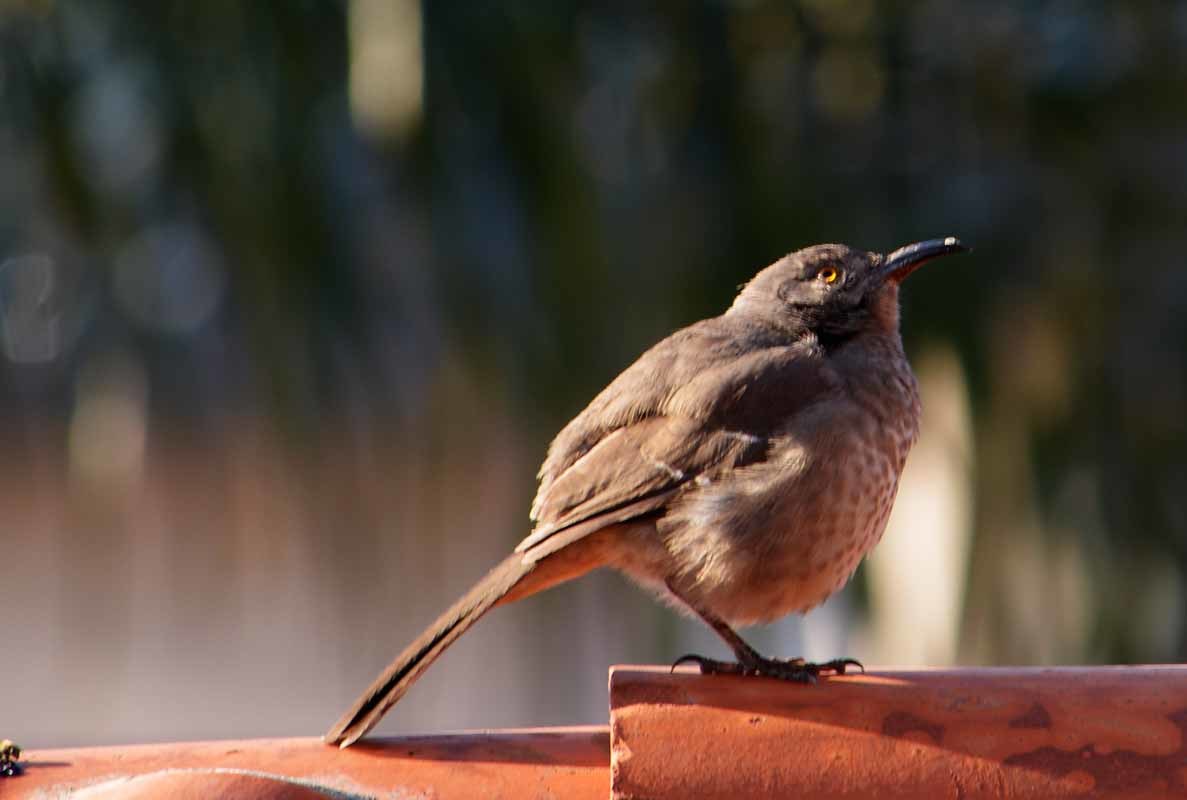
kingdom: Animalia
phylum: Chordata
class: Aves
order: Passeriformes
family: Mimidae
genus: Toxostoma
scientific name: Toxostoma curvirostre
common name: Curve-billed thrasher
